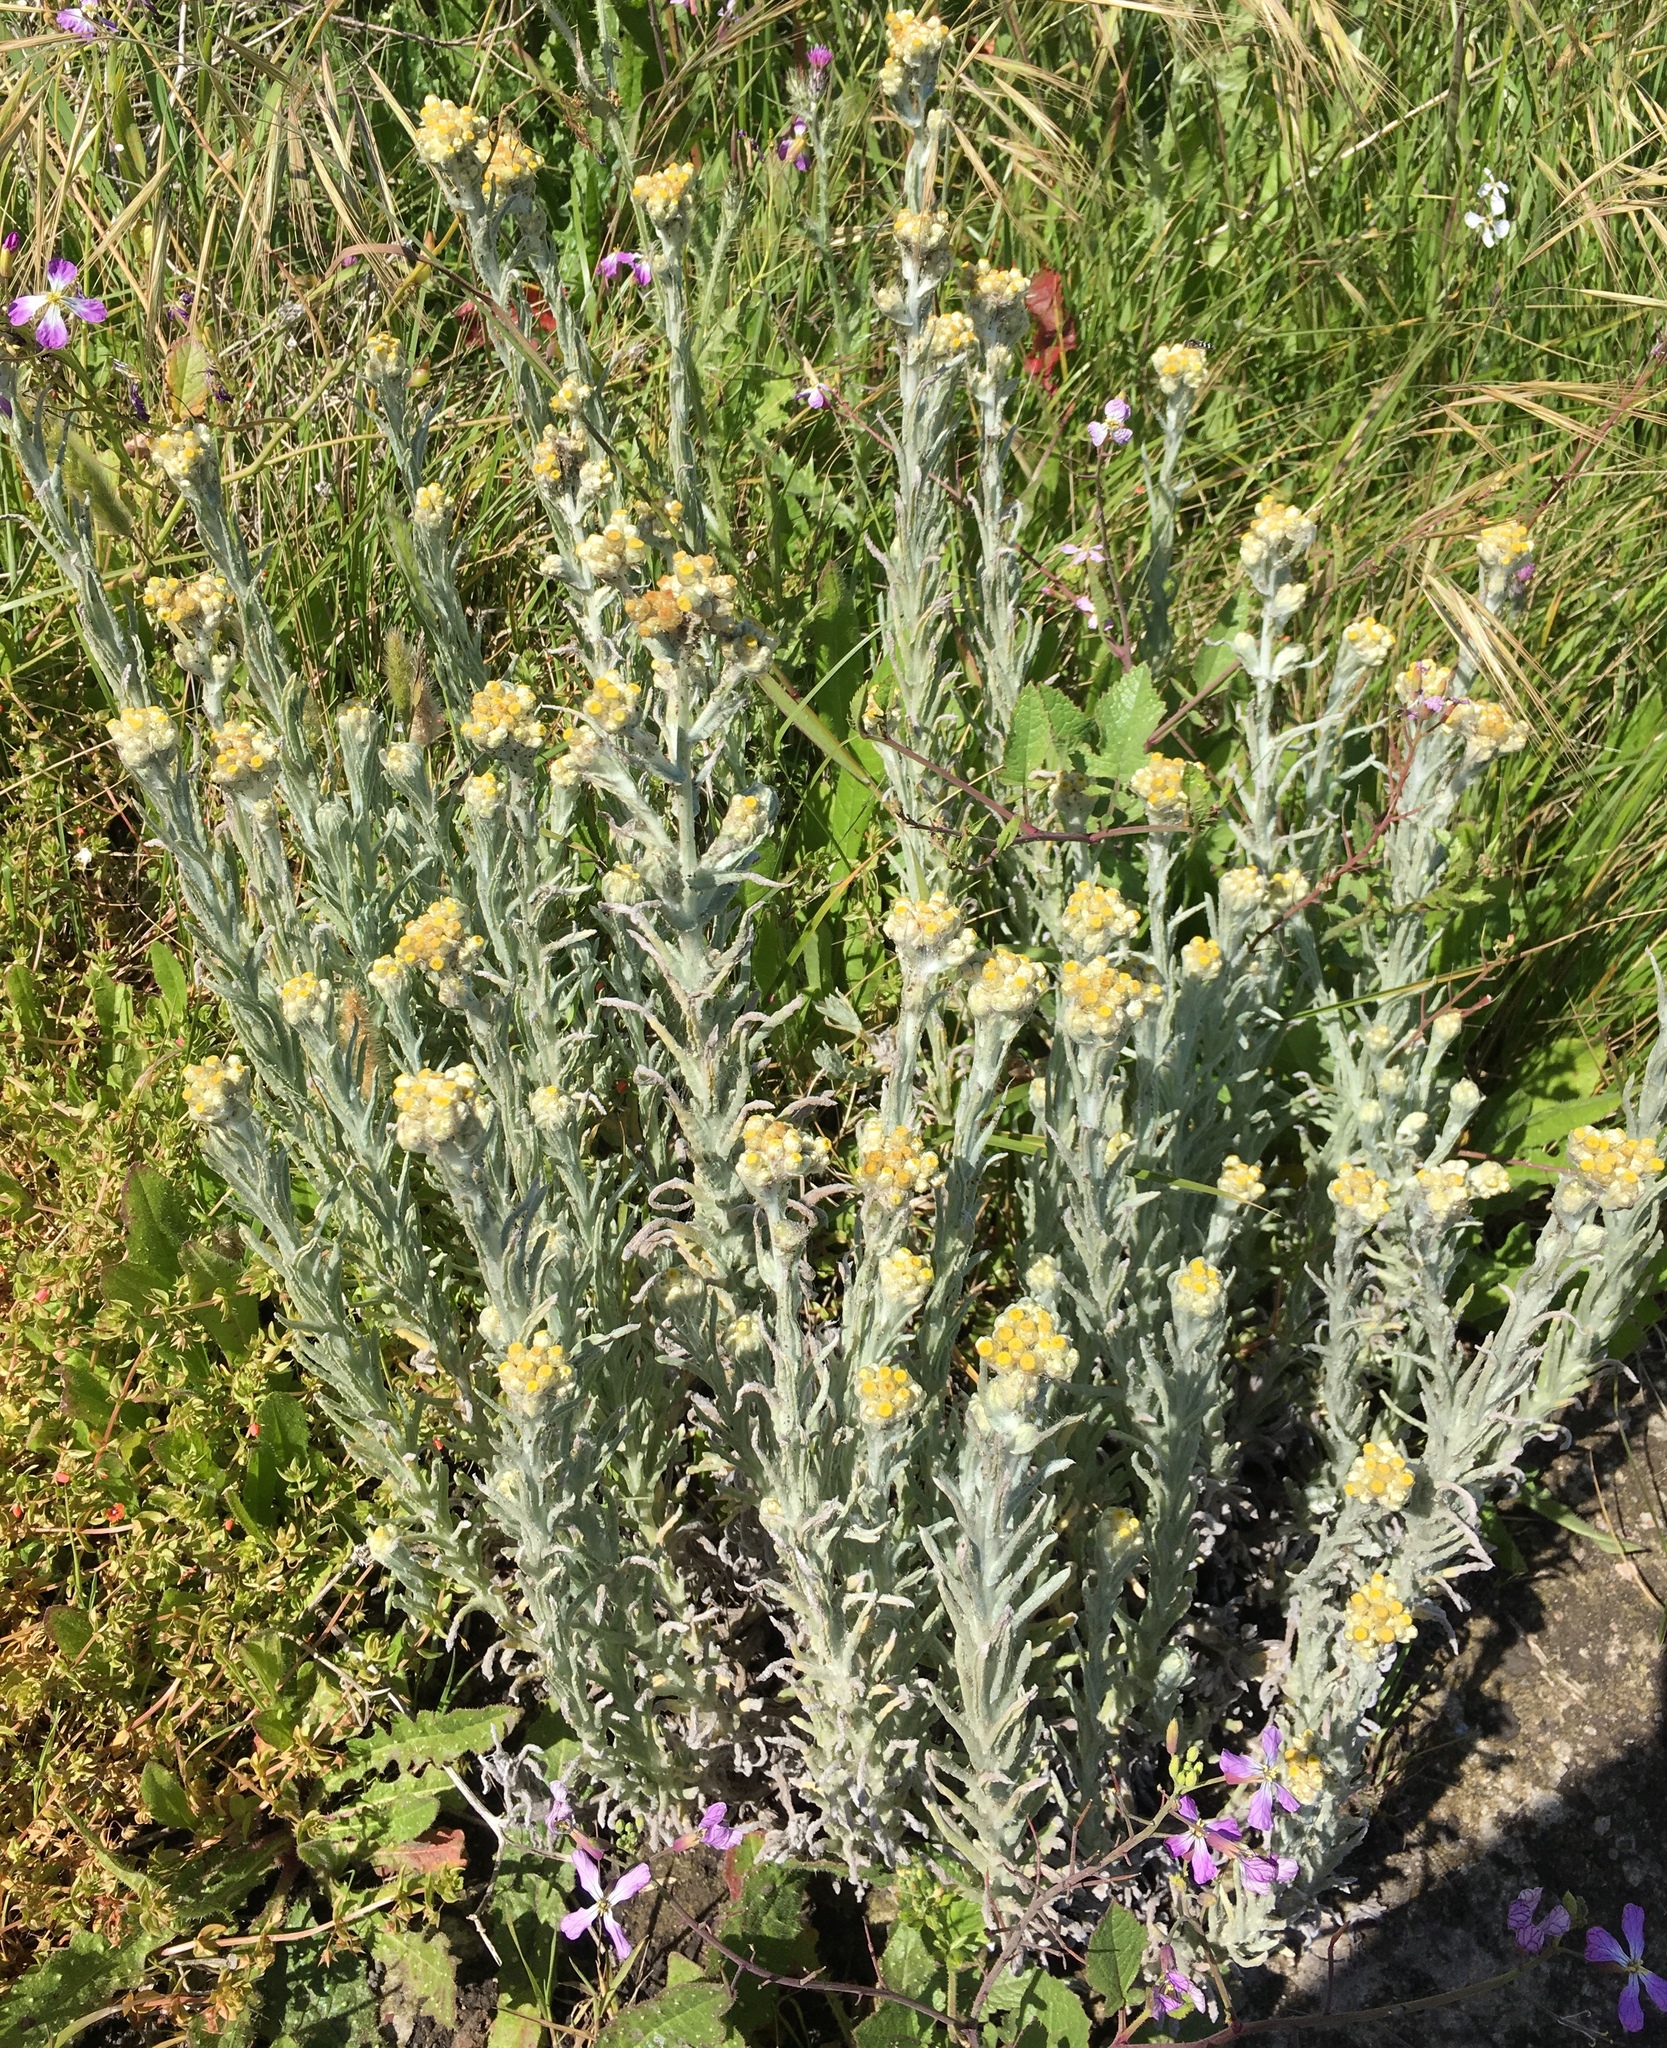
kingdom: Plantae
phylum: Tracheophyta
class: Magnoliopsida
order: Asterales
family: Asteraceae
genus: Pseudognaphalium
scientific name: Pseudognaphalium stramineum
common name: Cotton-batting-plant
